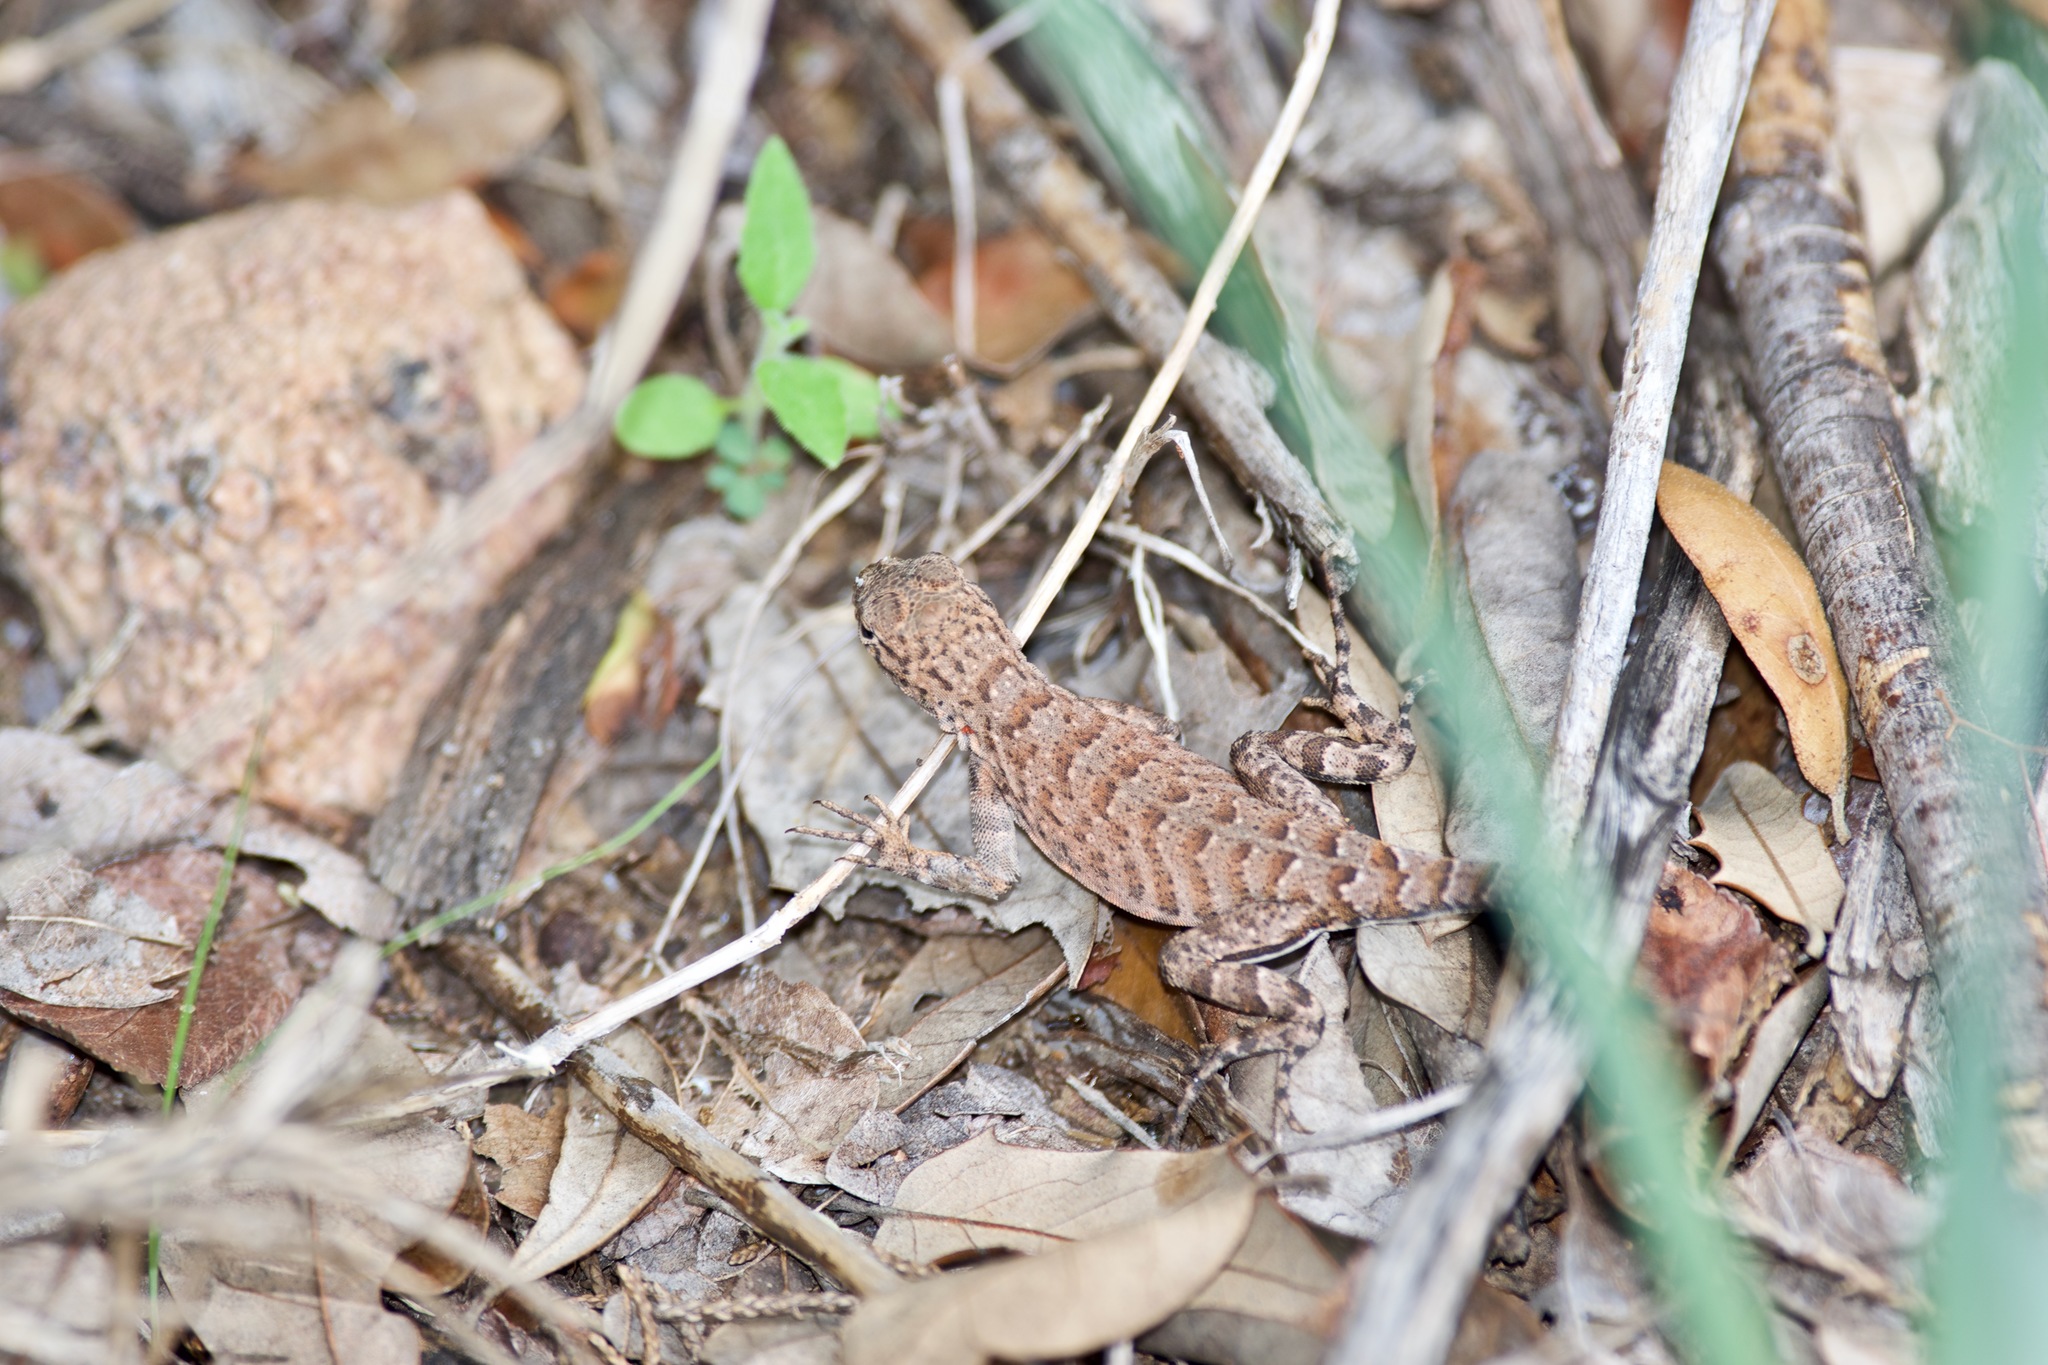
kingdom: Animalia
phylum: Chordata
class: Squamata
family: Phrynosomatidae
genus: Cophosaurus
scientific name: Cophosaurus texanus
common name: Greater earless lizard
